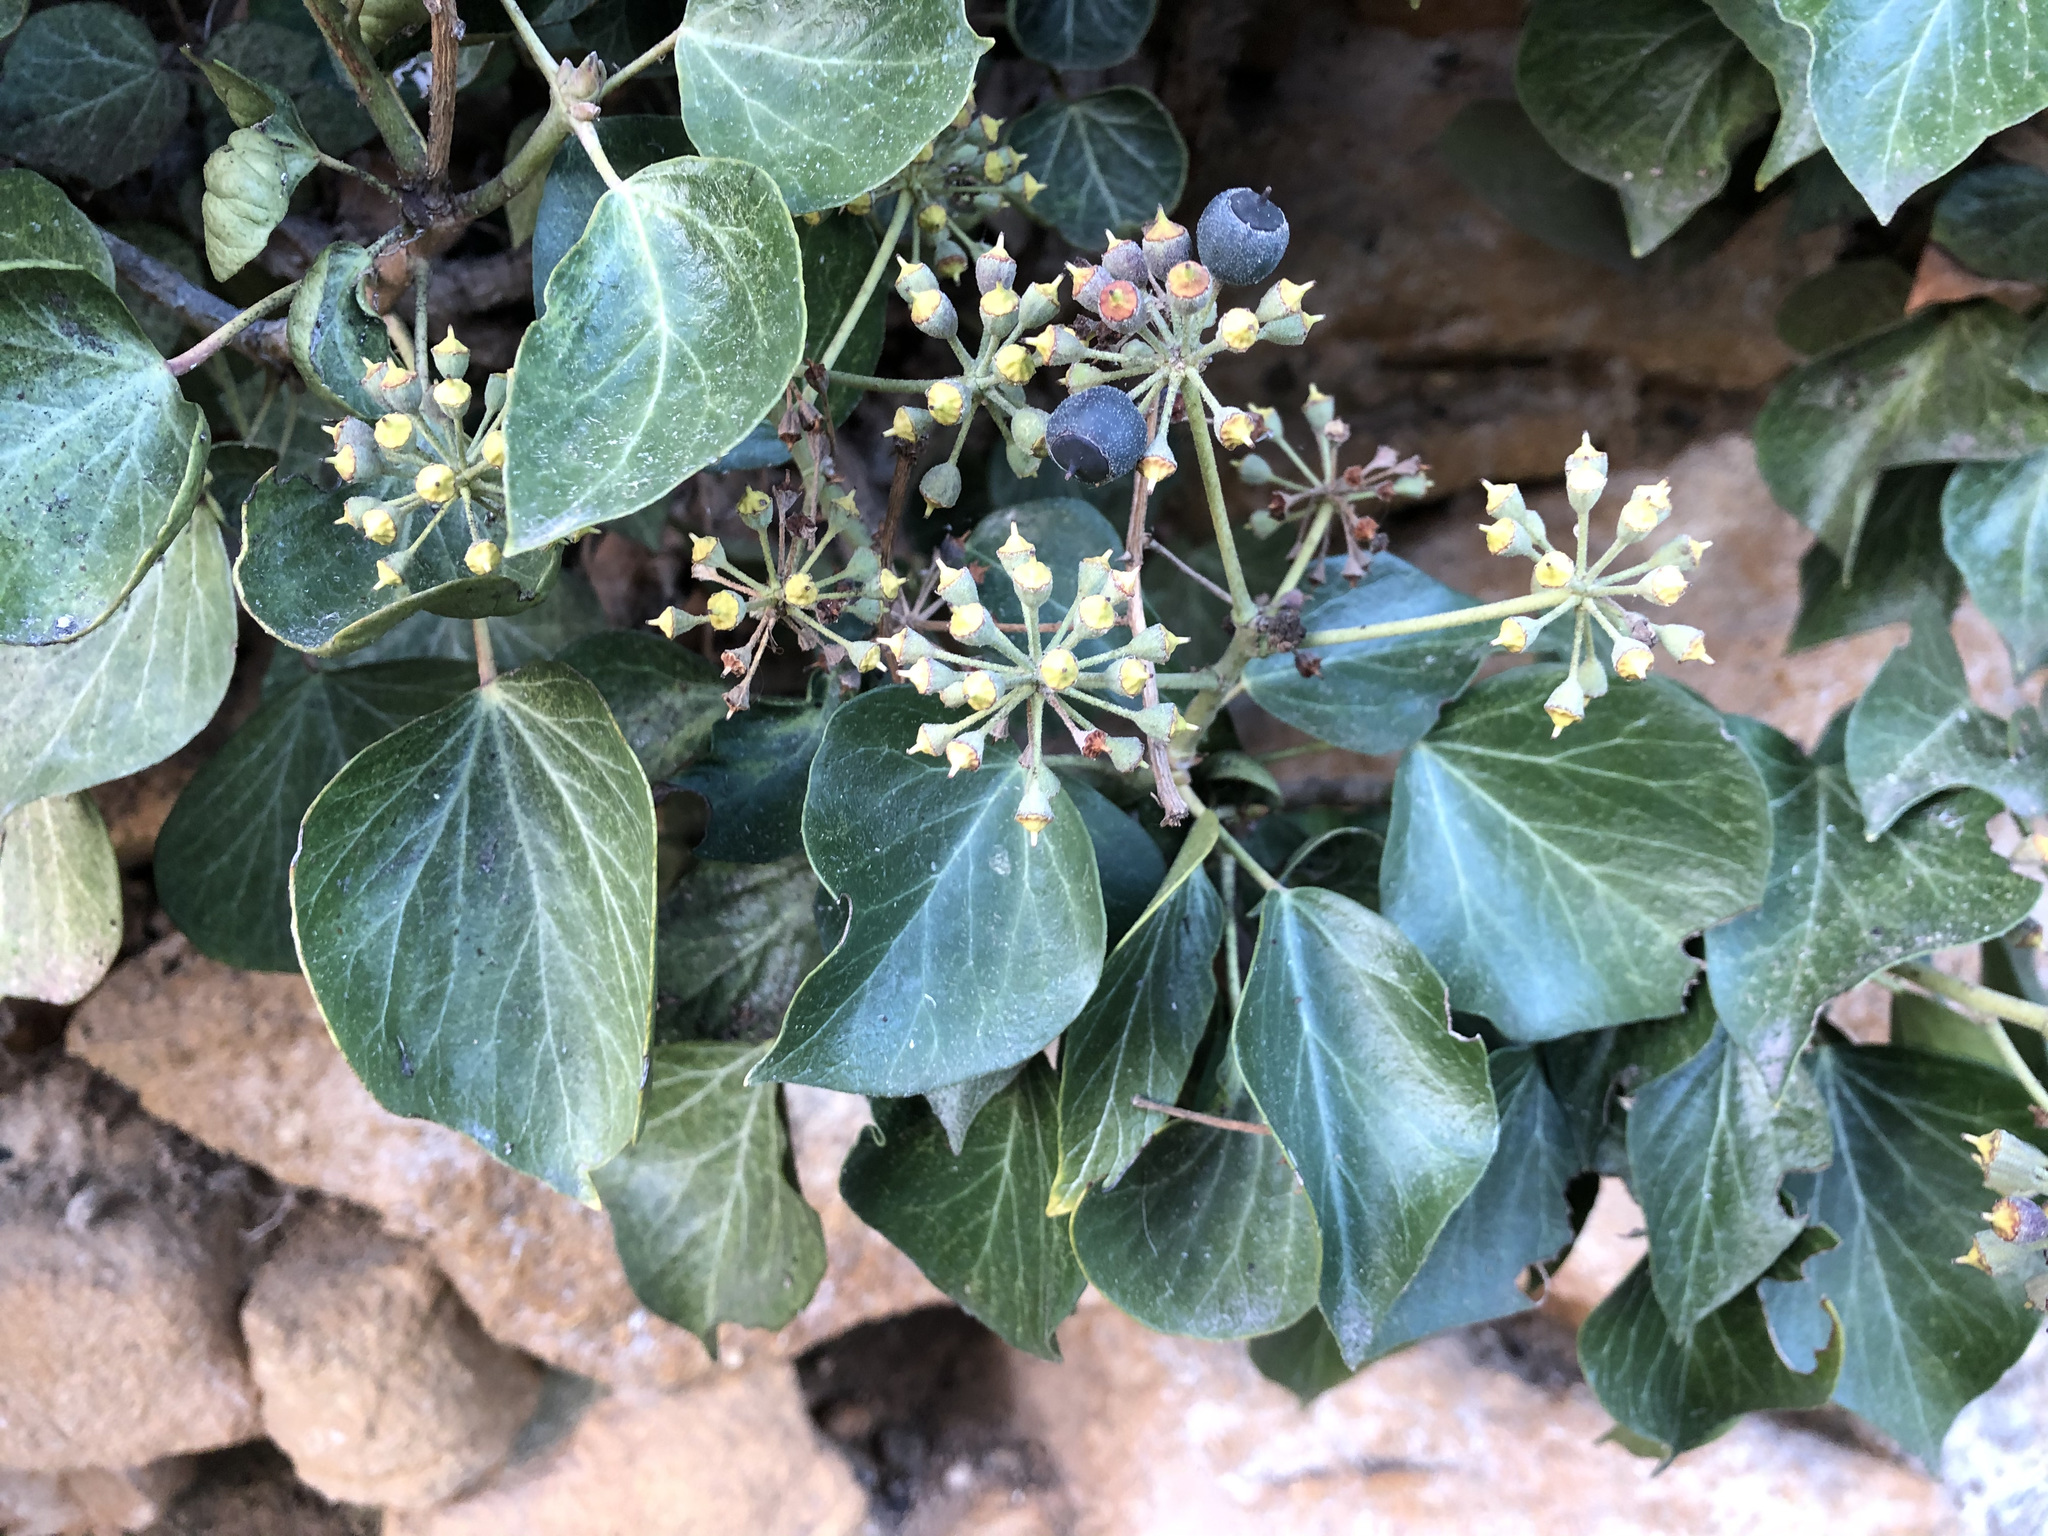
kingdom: Plantae
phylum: Tracheophyta
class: Magnoliopsida
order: Apiales
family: Araliaceae
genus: Hedera
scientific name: Hedera helix
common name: Ivy
